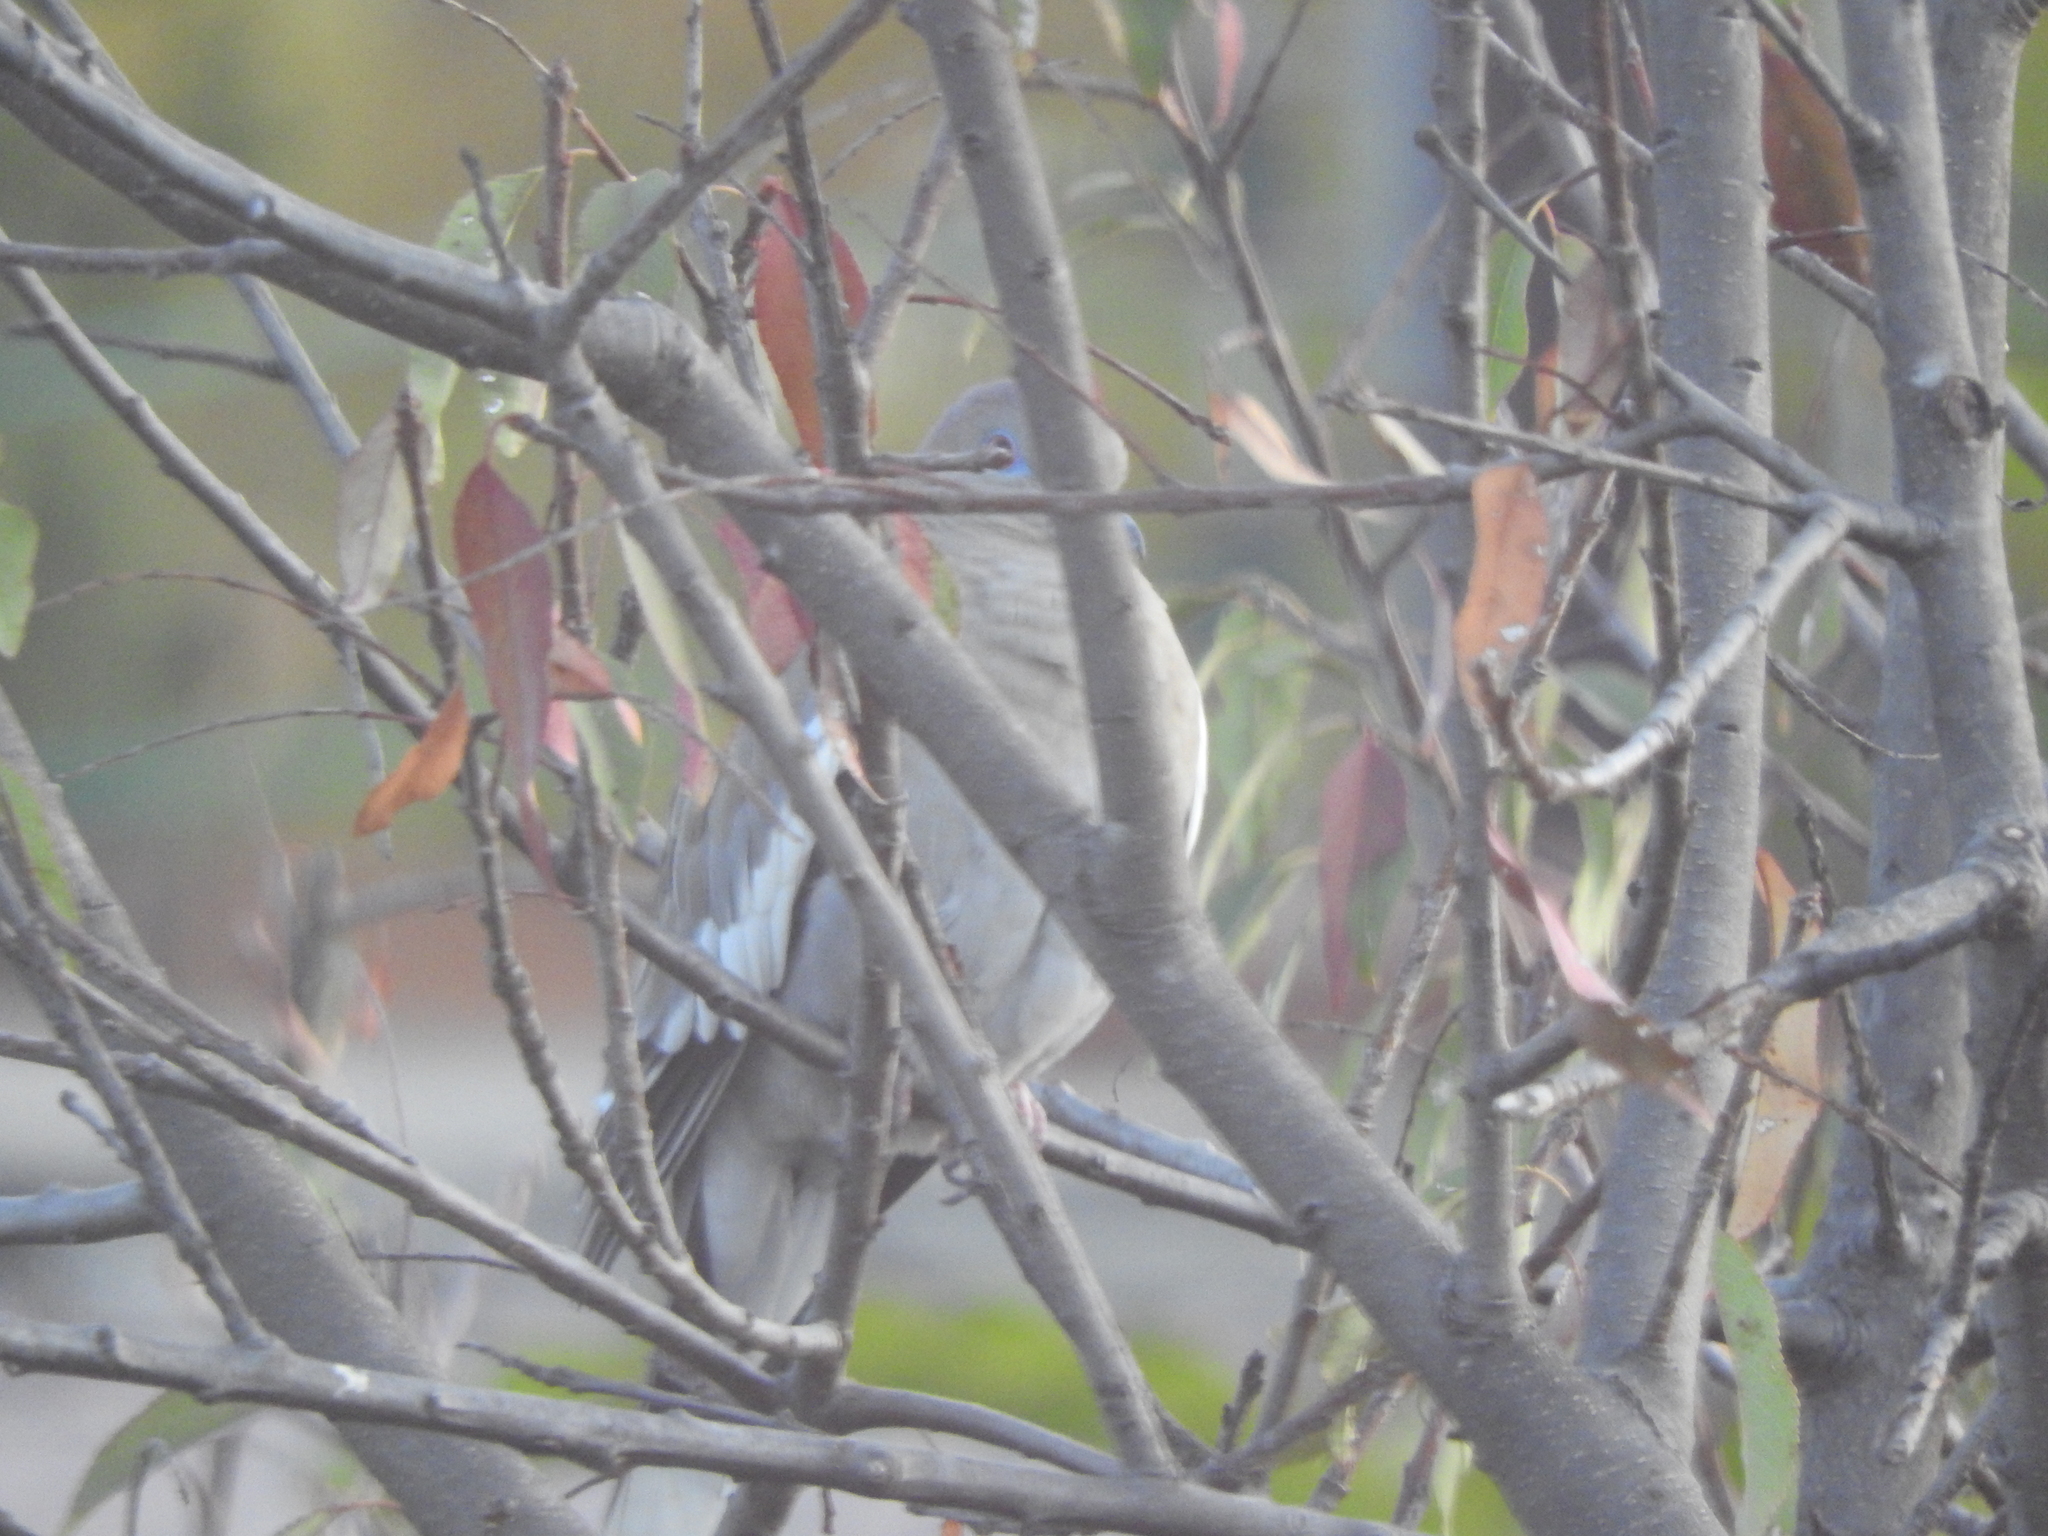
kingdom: Animalia
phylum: Chordata
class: Aves
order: Columbiformes
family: Columbidae
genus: Zenaida
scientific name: Zenaida asiatica
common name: White-winged dove
